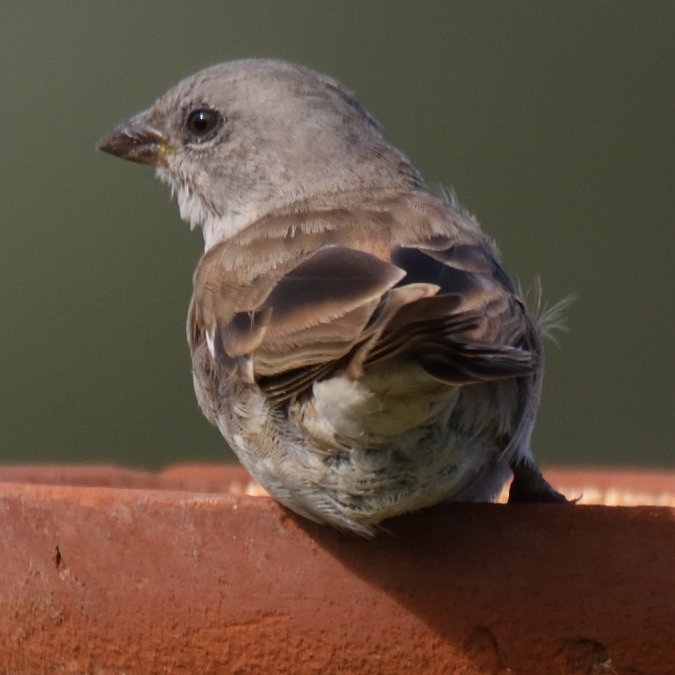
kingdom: Animalia
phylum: Chordata
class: Aves
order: Passeriformes
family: Passeridae
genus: Passer
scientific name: Passer diffusus
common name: Southern grey-headed sparrow
